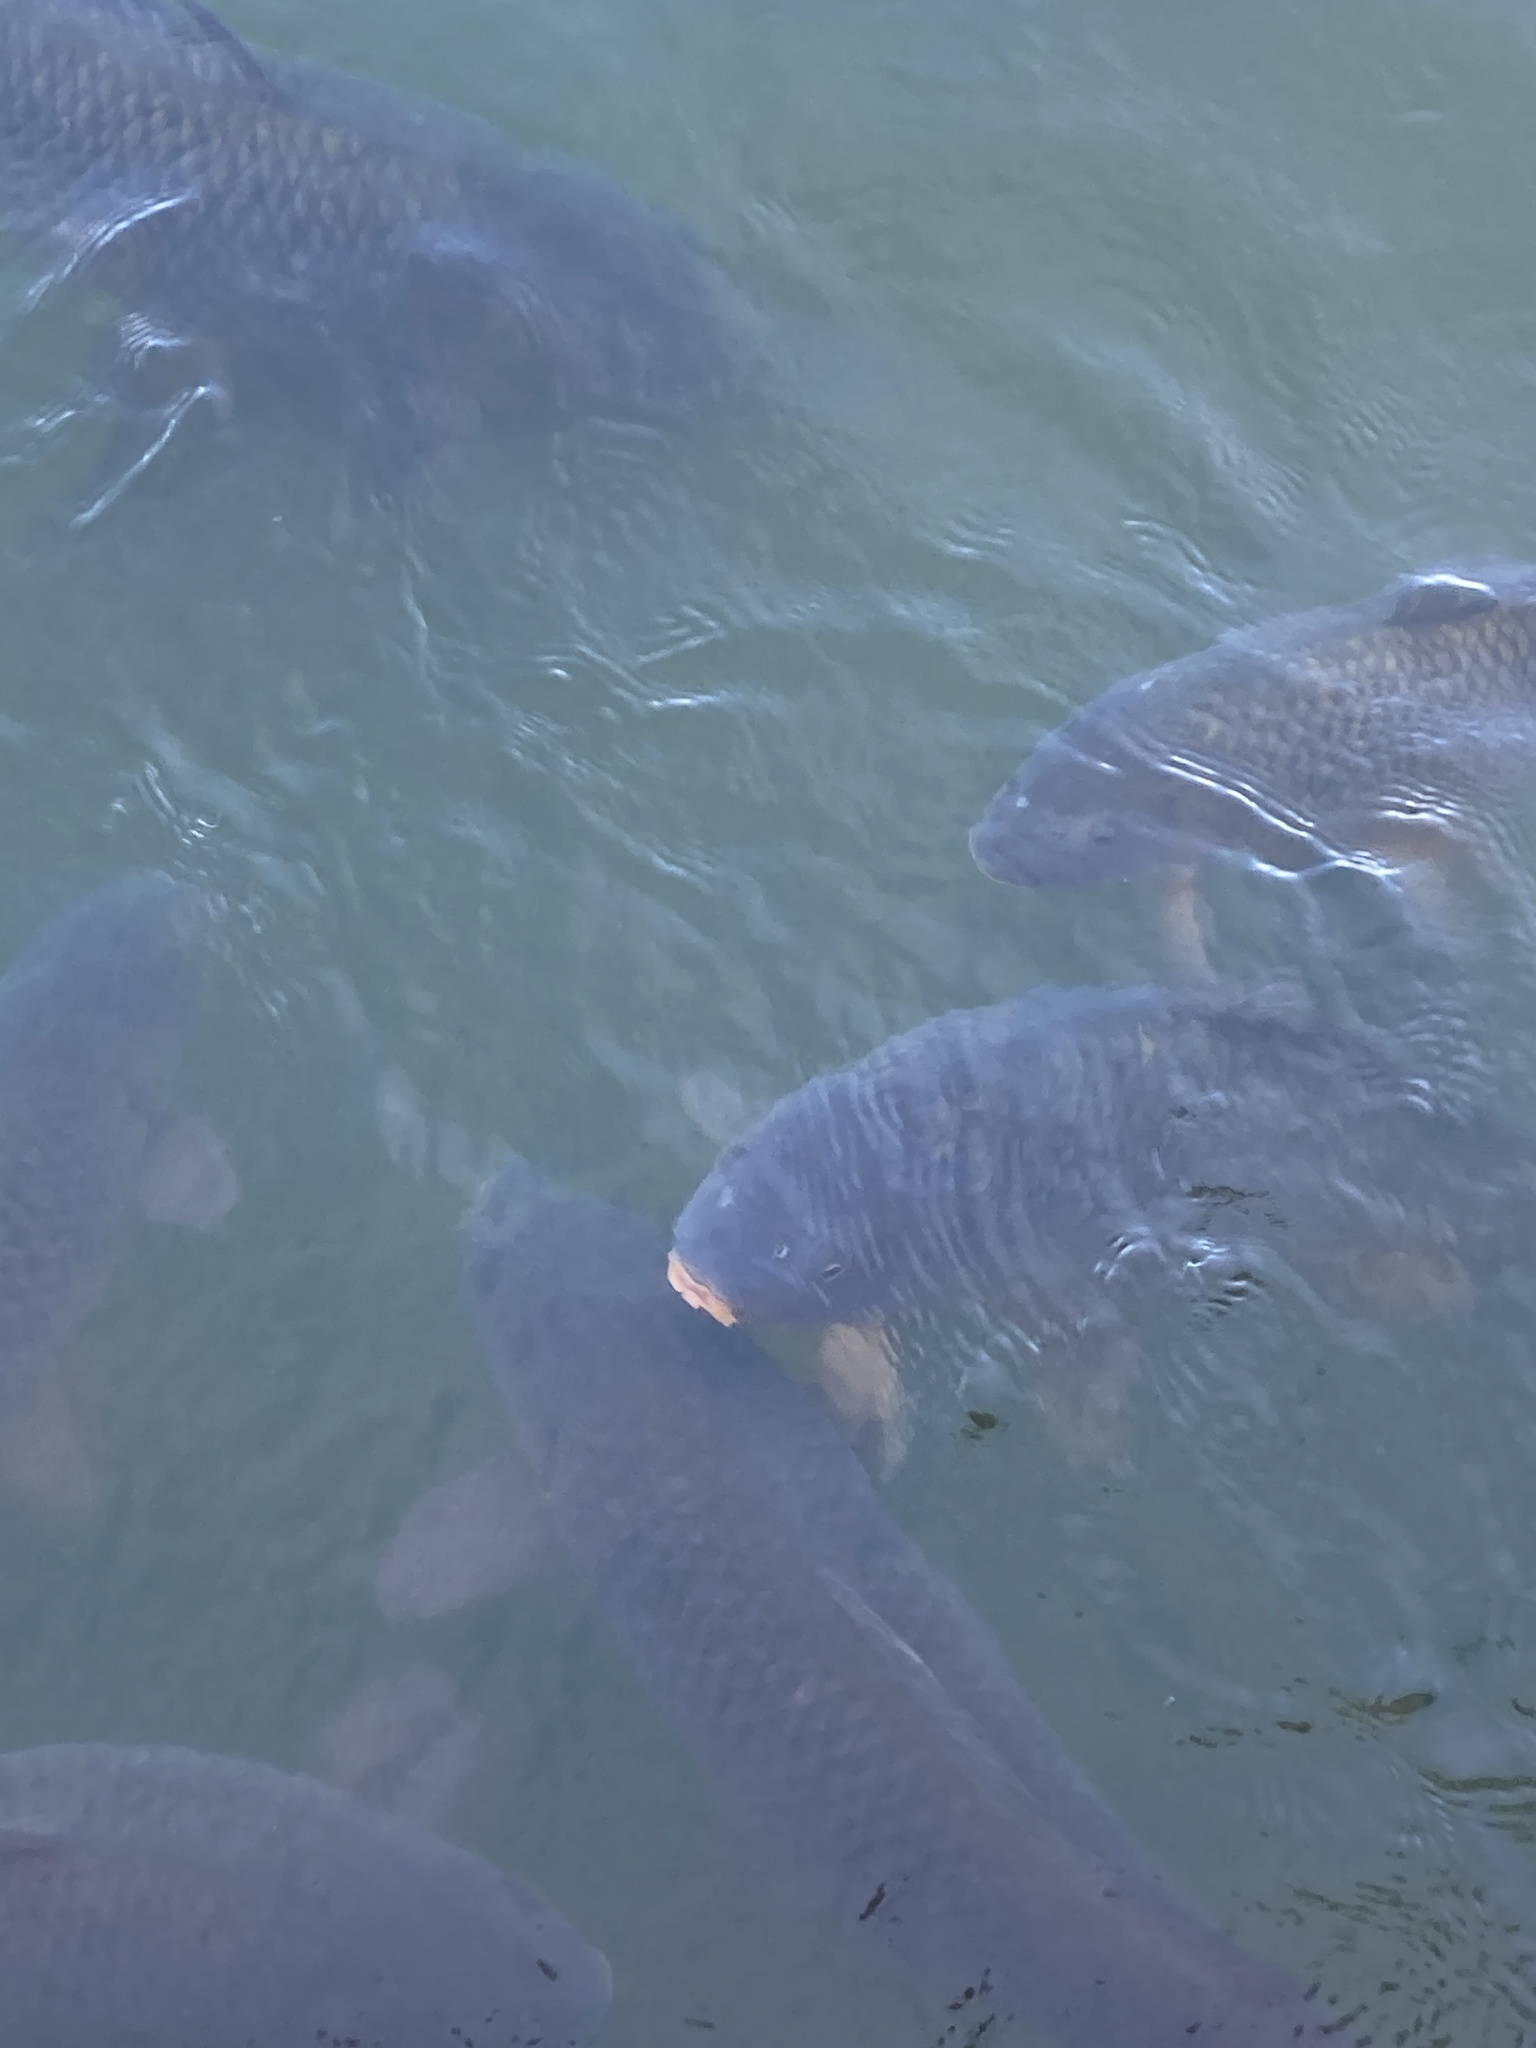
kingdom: Animalia
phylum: Chordata
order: Cypriniformes
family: Cyprinidae
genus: Cyprinus
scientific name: Cyprinus carpio
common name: Common carp
